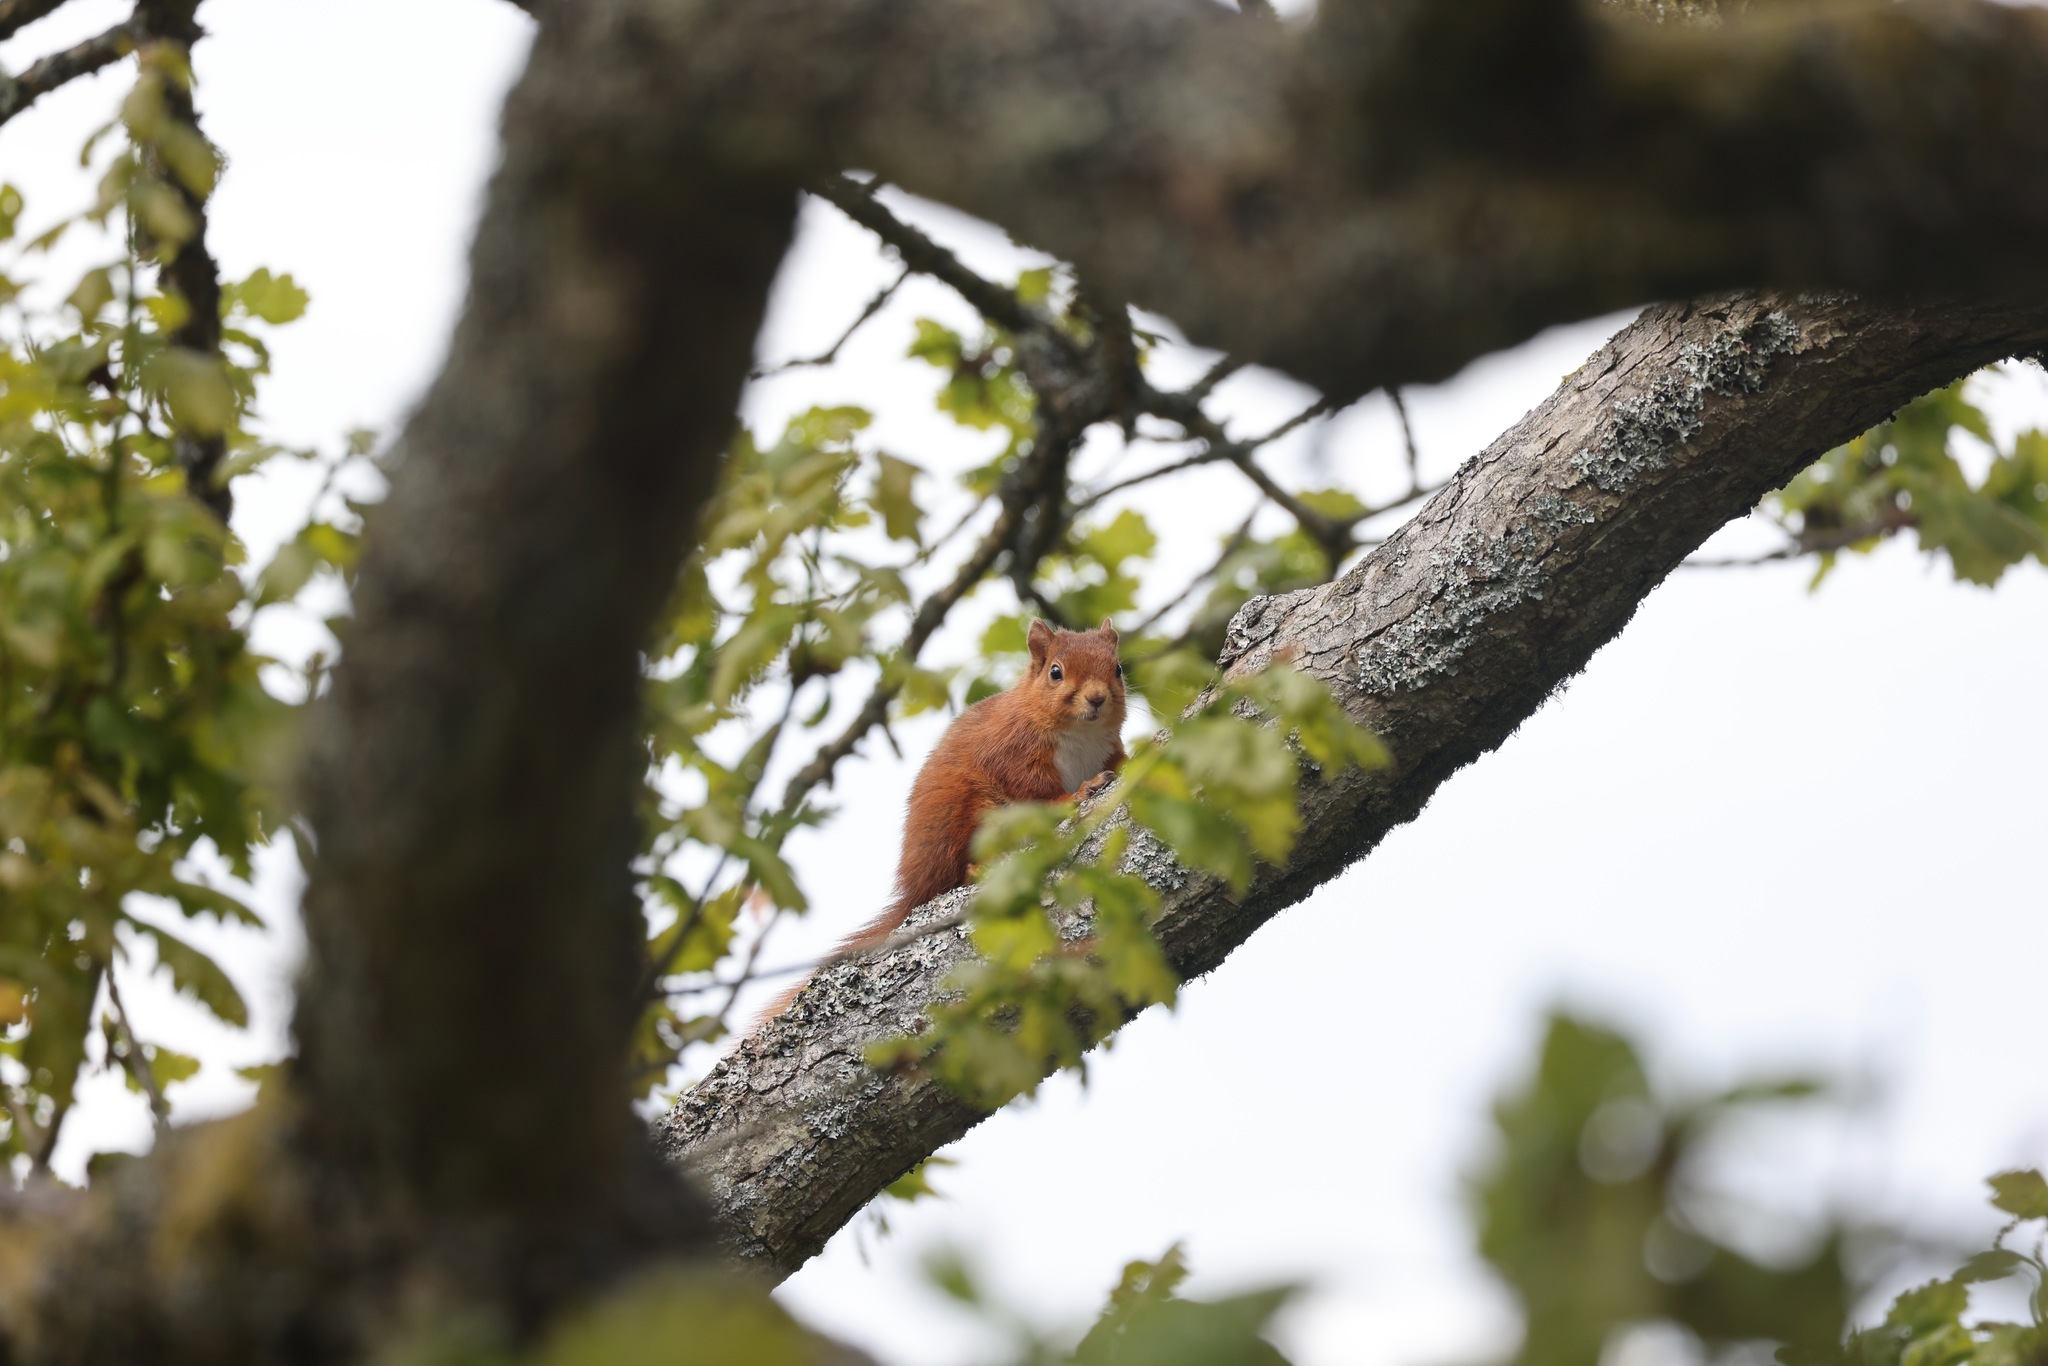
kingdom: Animalia
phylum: Chordata
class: Mammalia
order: Rodentia
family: Sciuridae
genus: Sciurus
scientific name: Sciurus vulgaris
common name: Eurasian red squirrel
